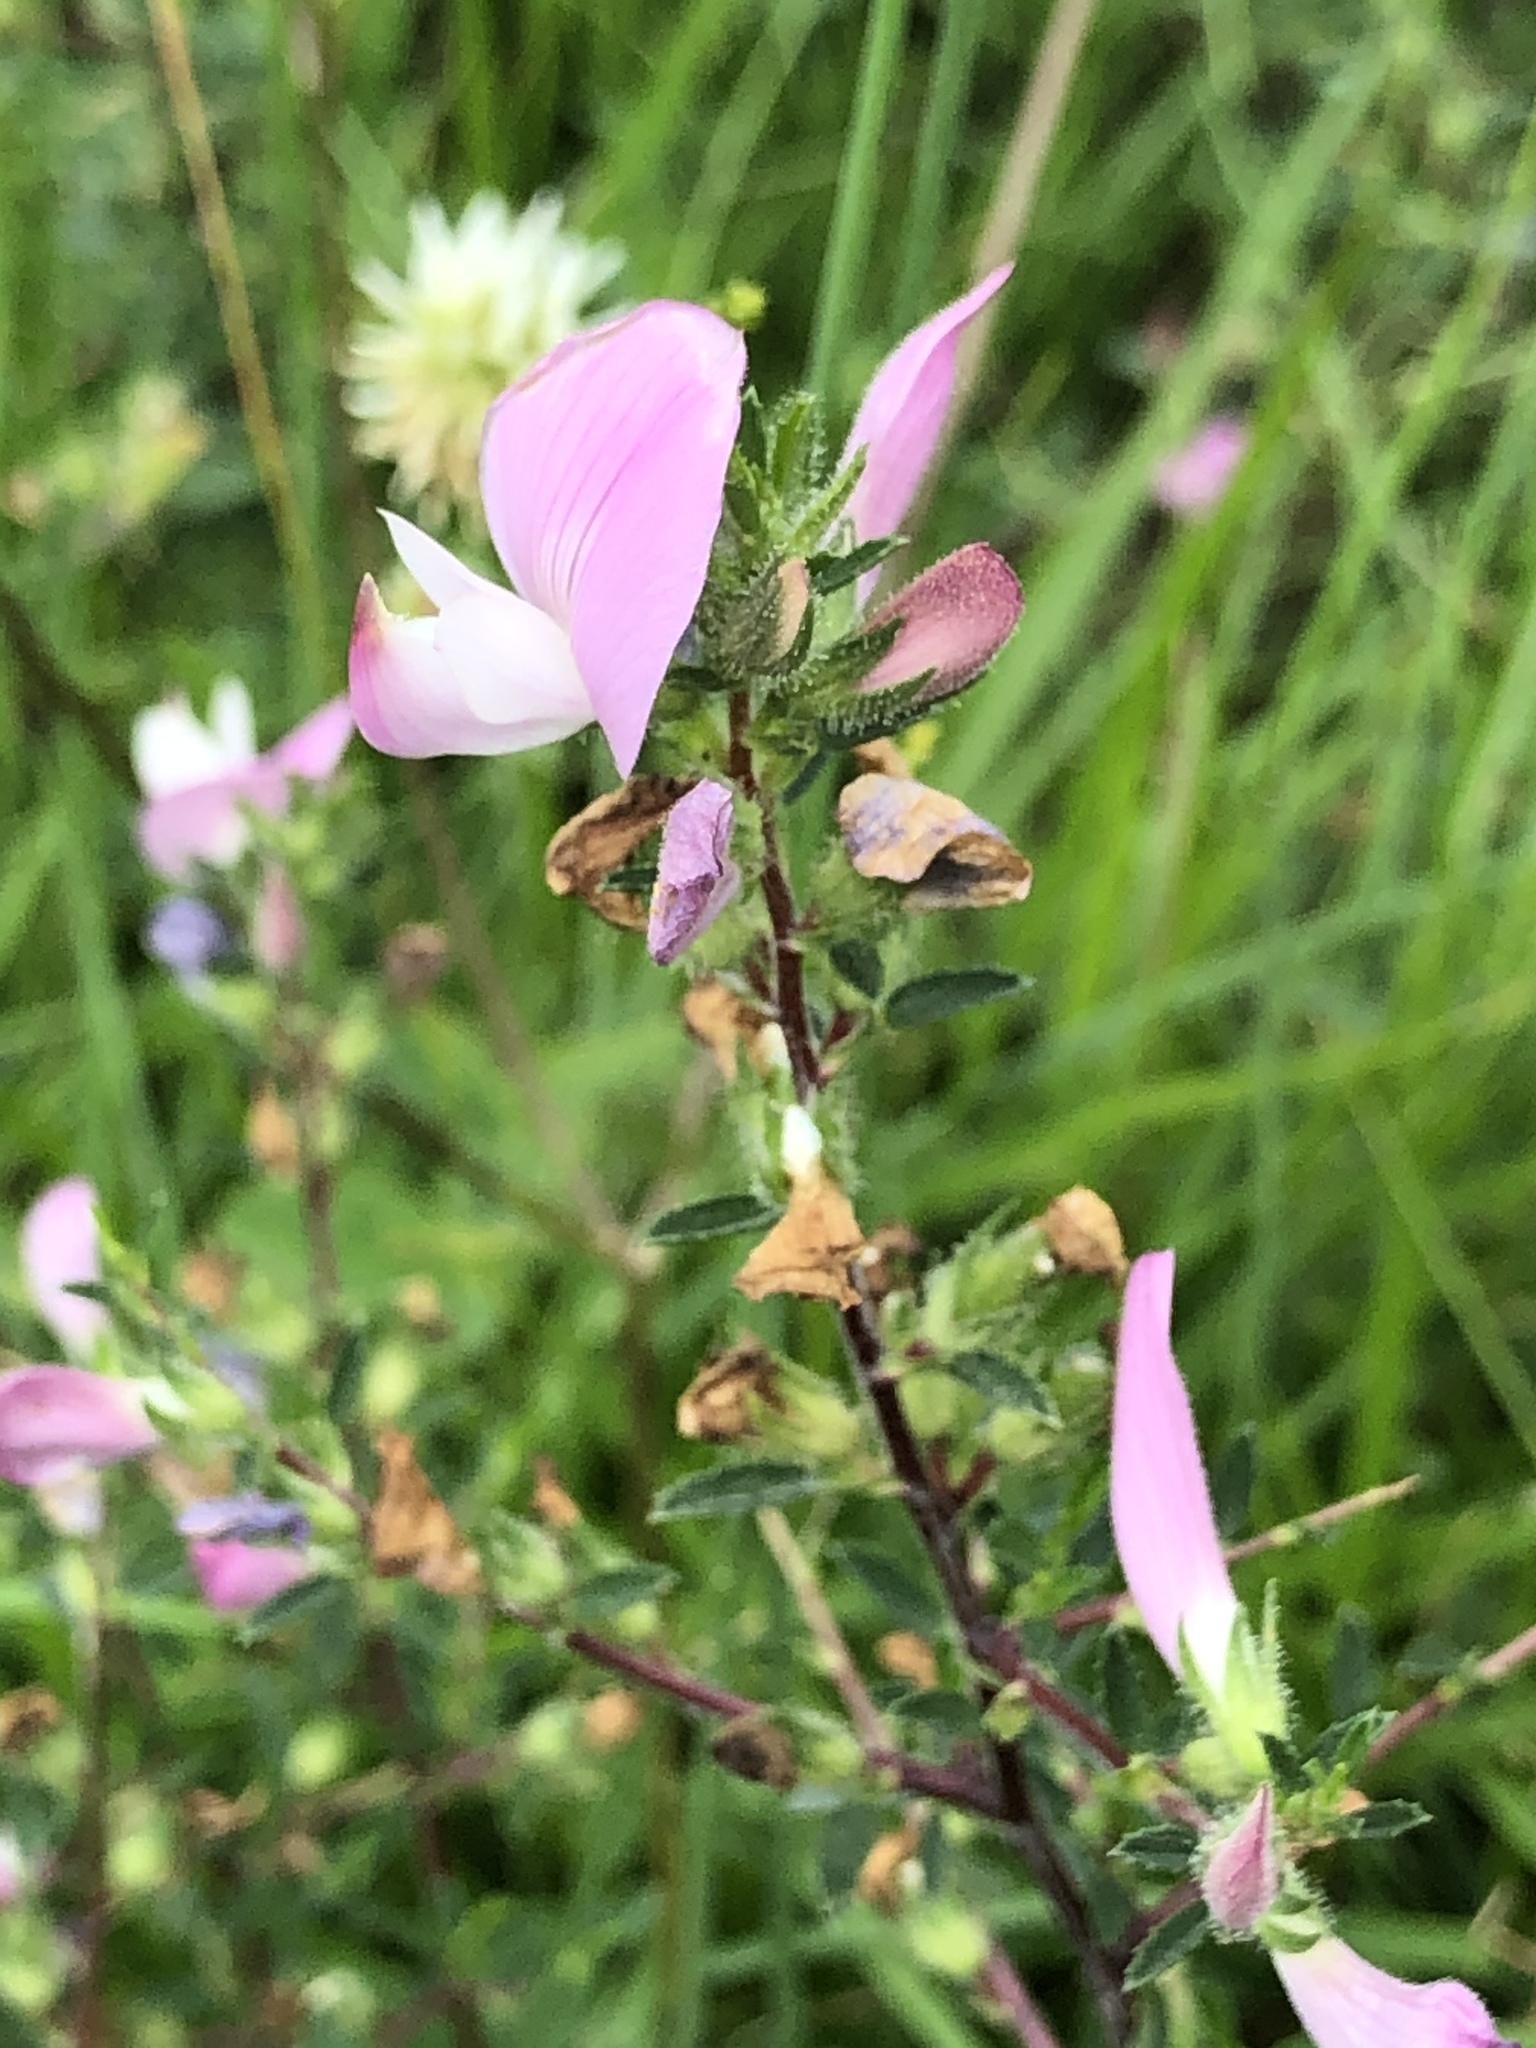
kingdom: Plantae
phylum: Tracheophyta
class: Magnoliopsida
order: Fabales
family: Fabaceae
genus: Ononis
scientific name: Ononis spinosa
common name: Spiny restharrow
